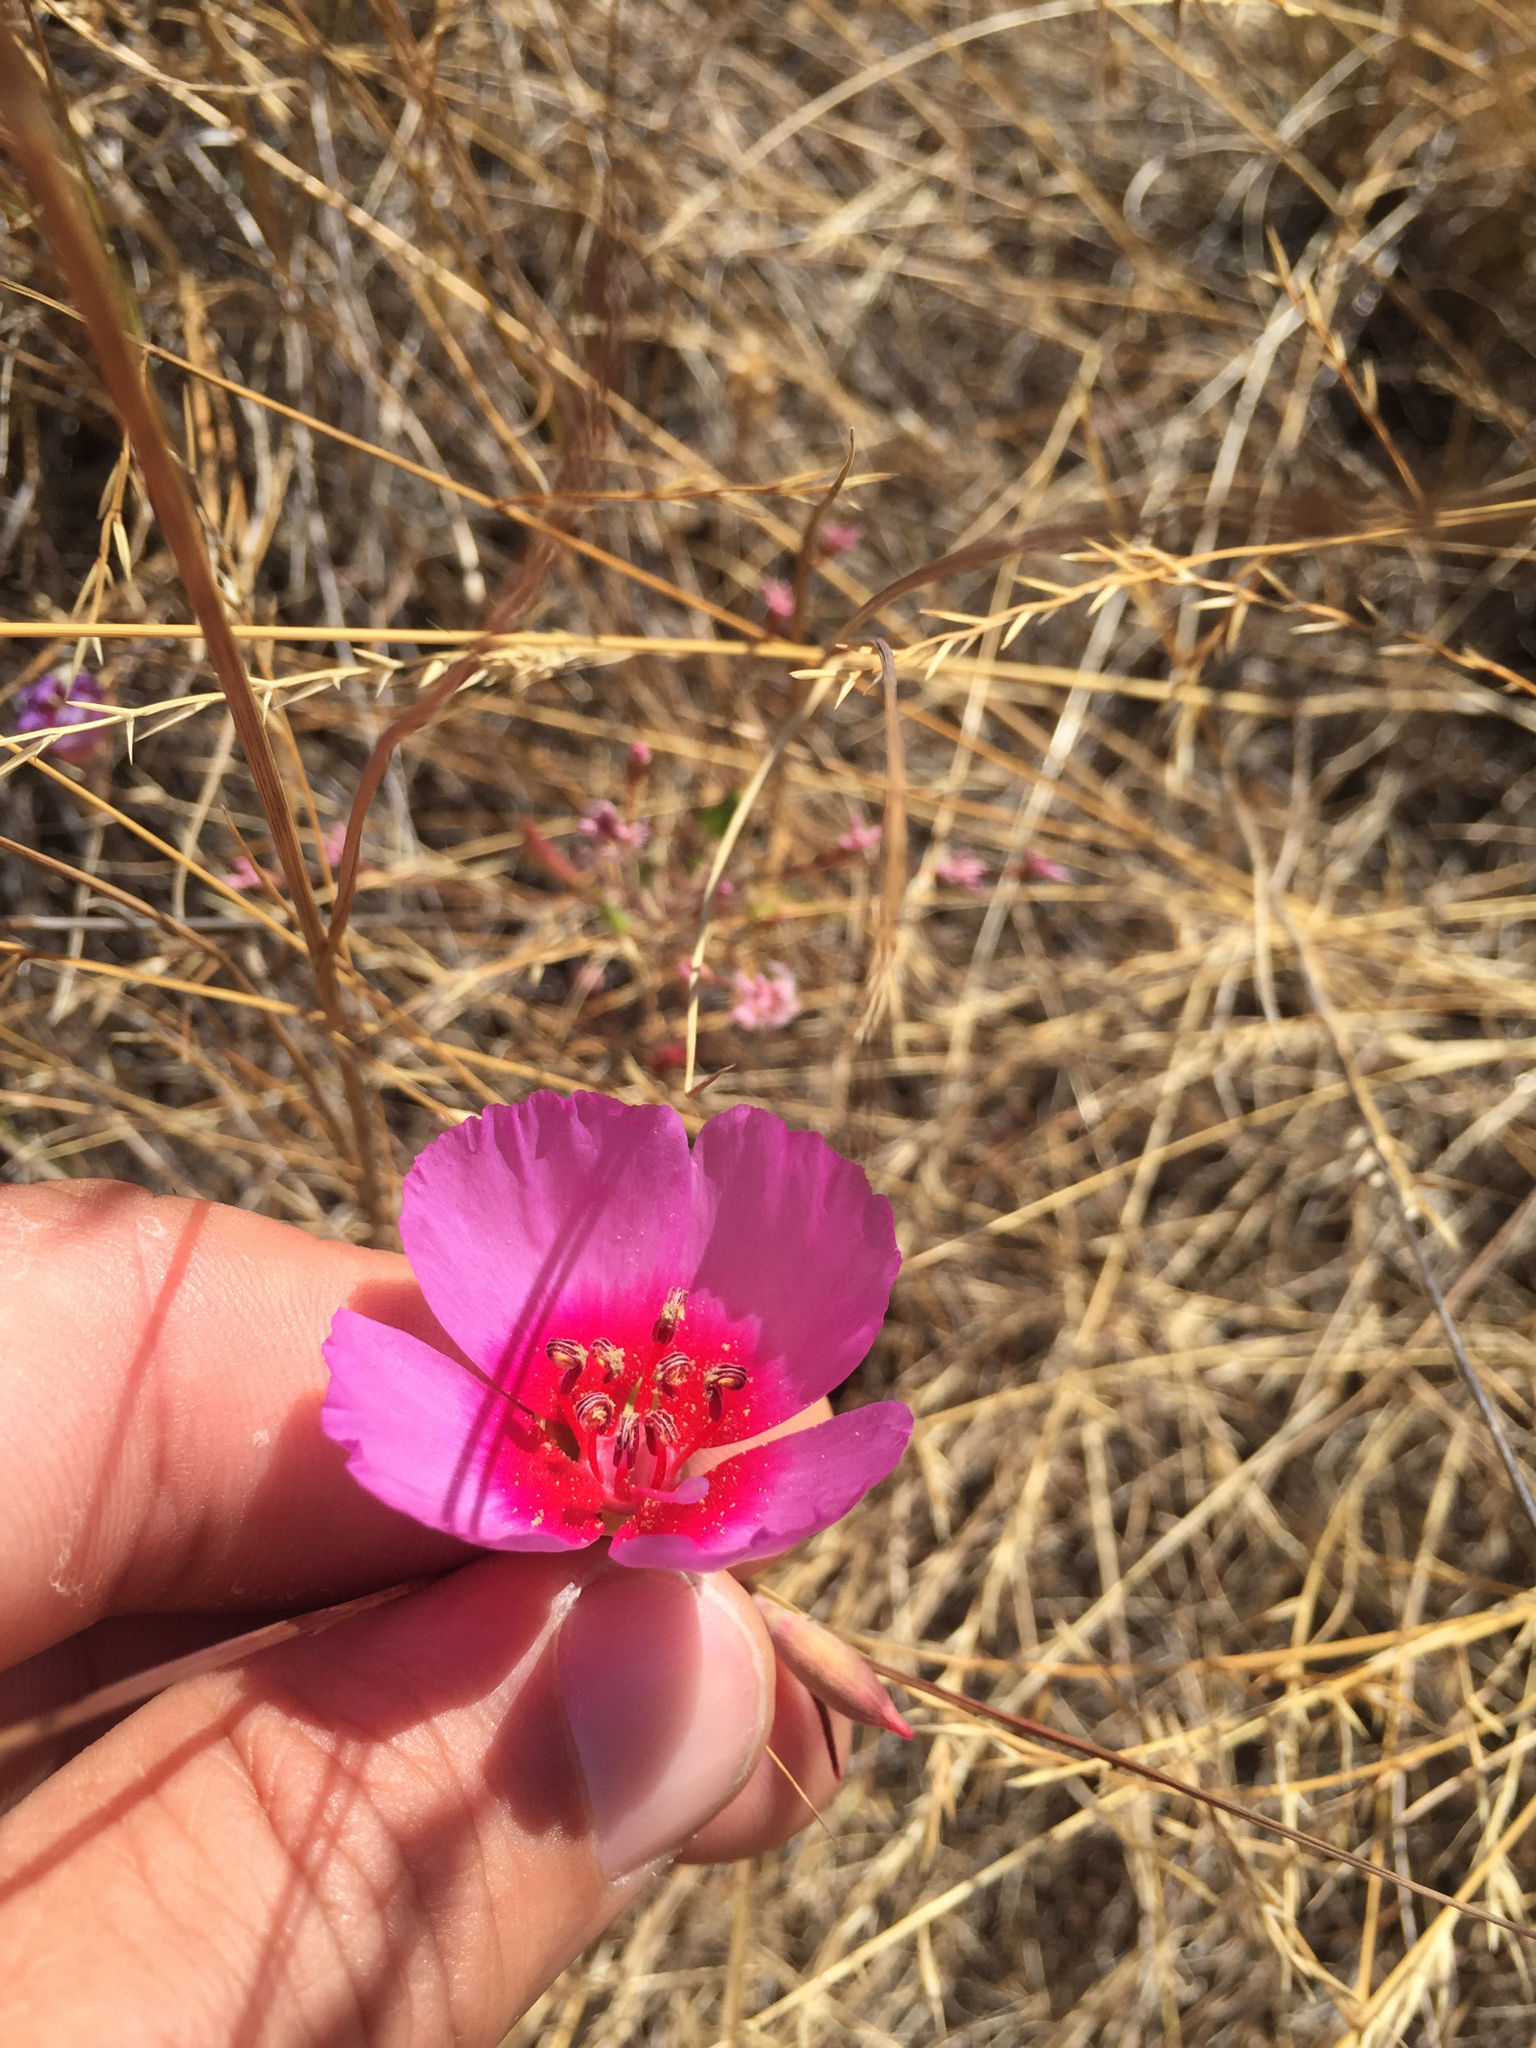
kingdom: Plantae
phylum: Tracheophyta
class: Magnoliopsida
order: Myrtales
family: Onagraceae
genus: Clarkia
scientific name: Clarkia rubicunda
